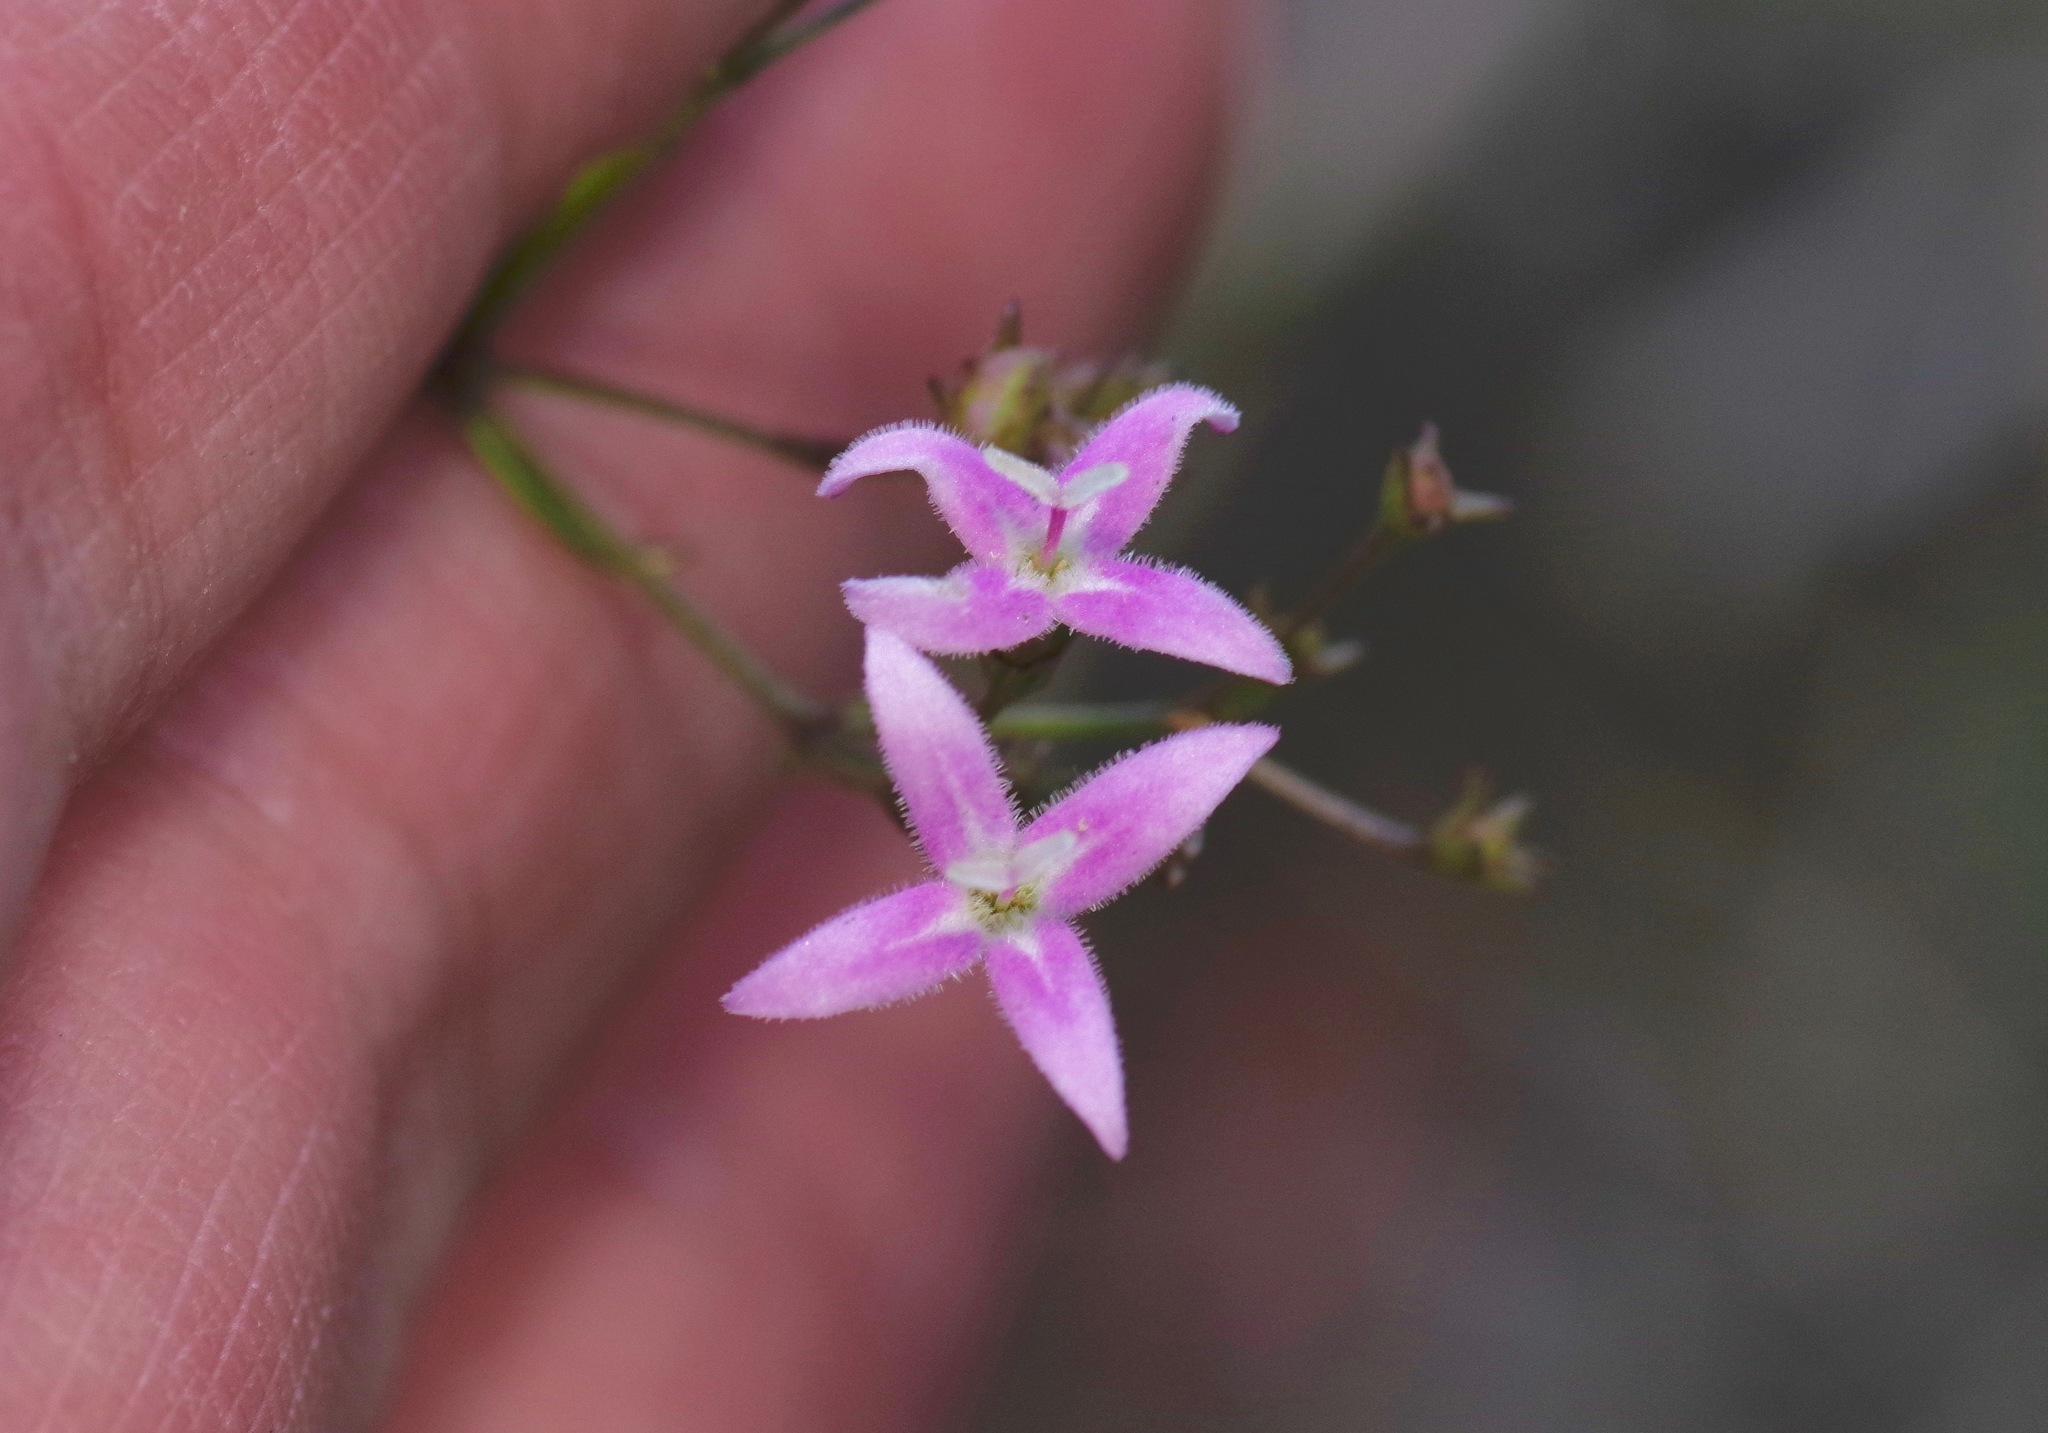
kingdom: Plantae
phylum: Tracheophyta
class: Magnoliopsida
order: Gentianales
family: Rubiaceae
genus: Stenaria
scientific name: Stenaria nigricans
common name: Diamondflowers
